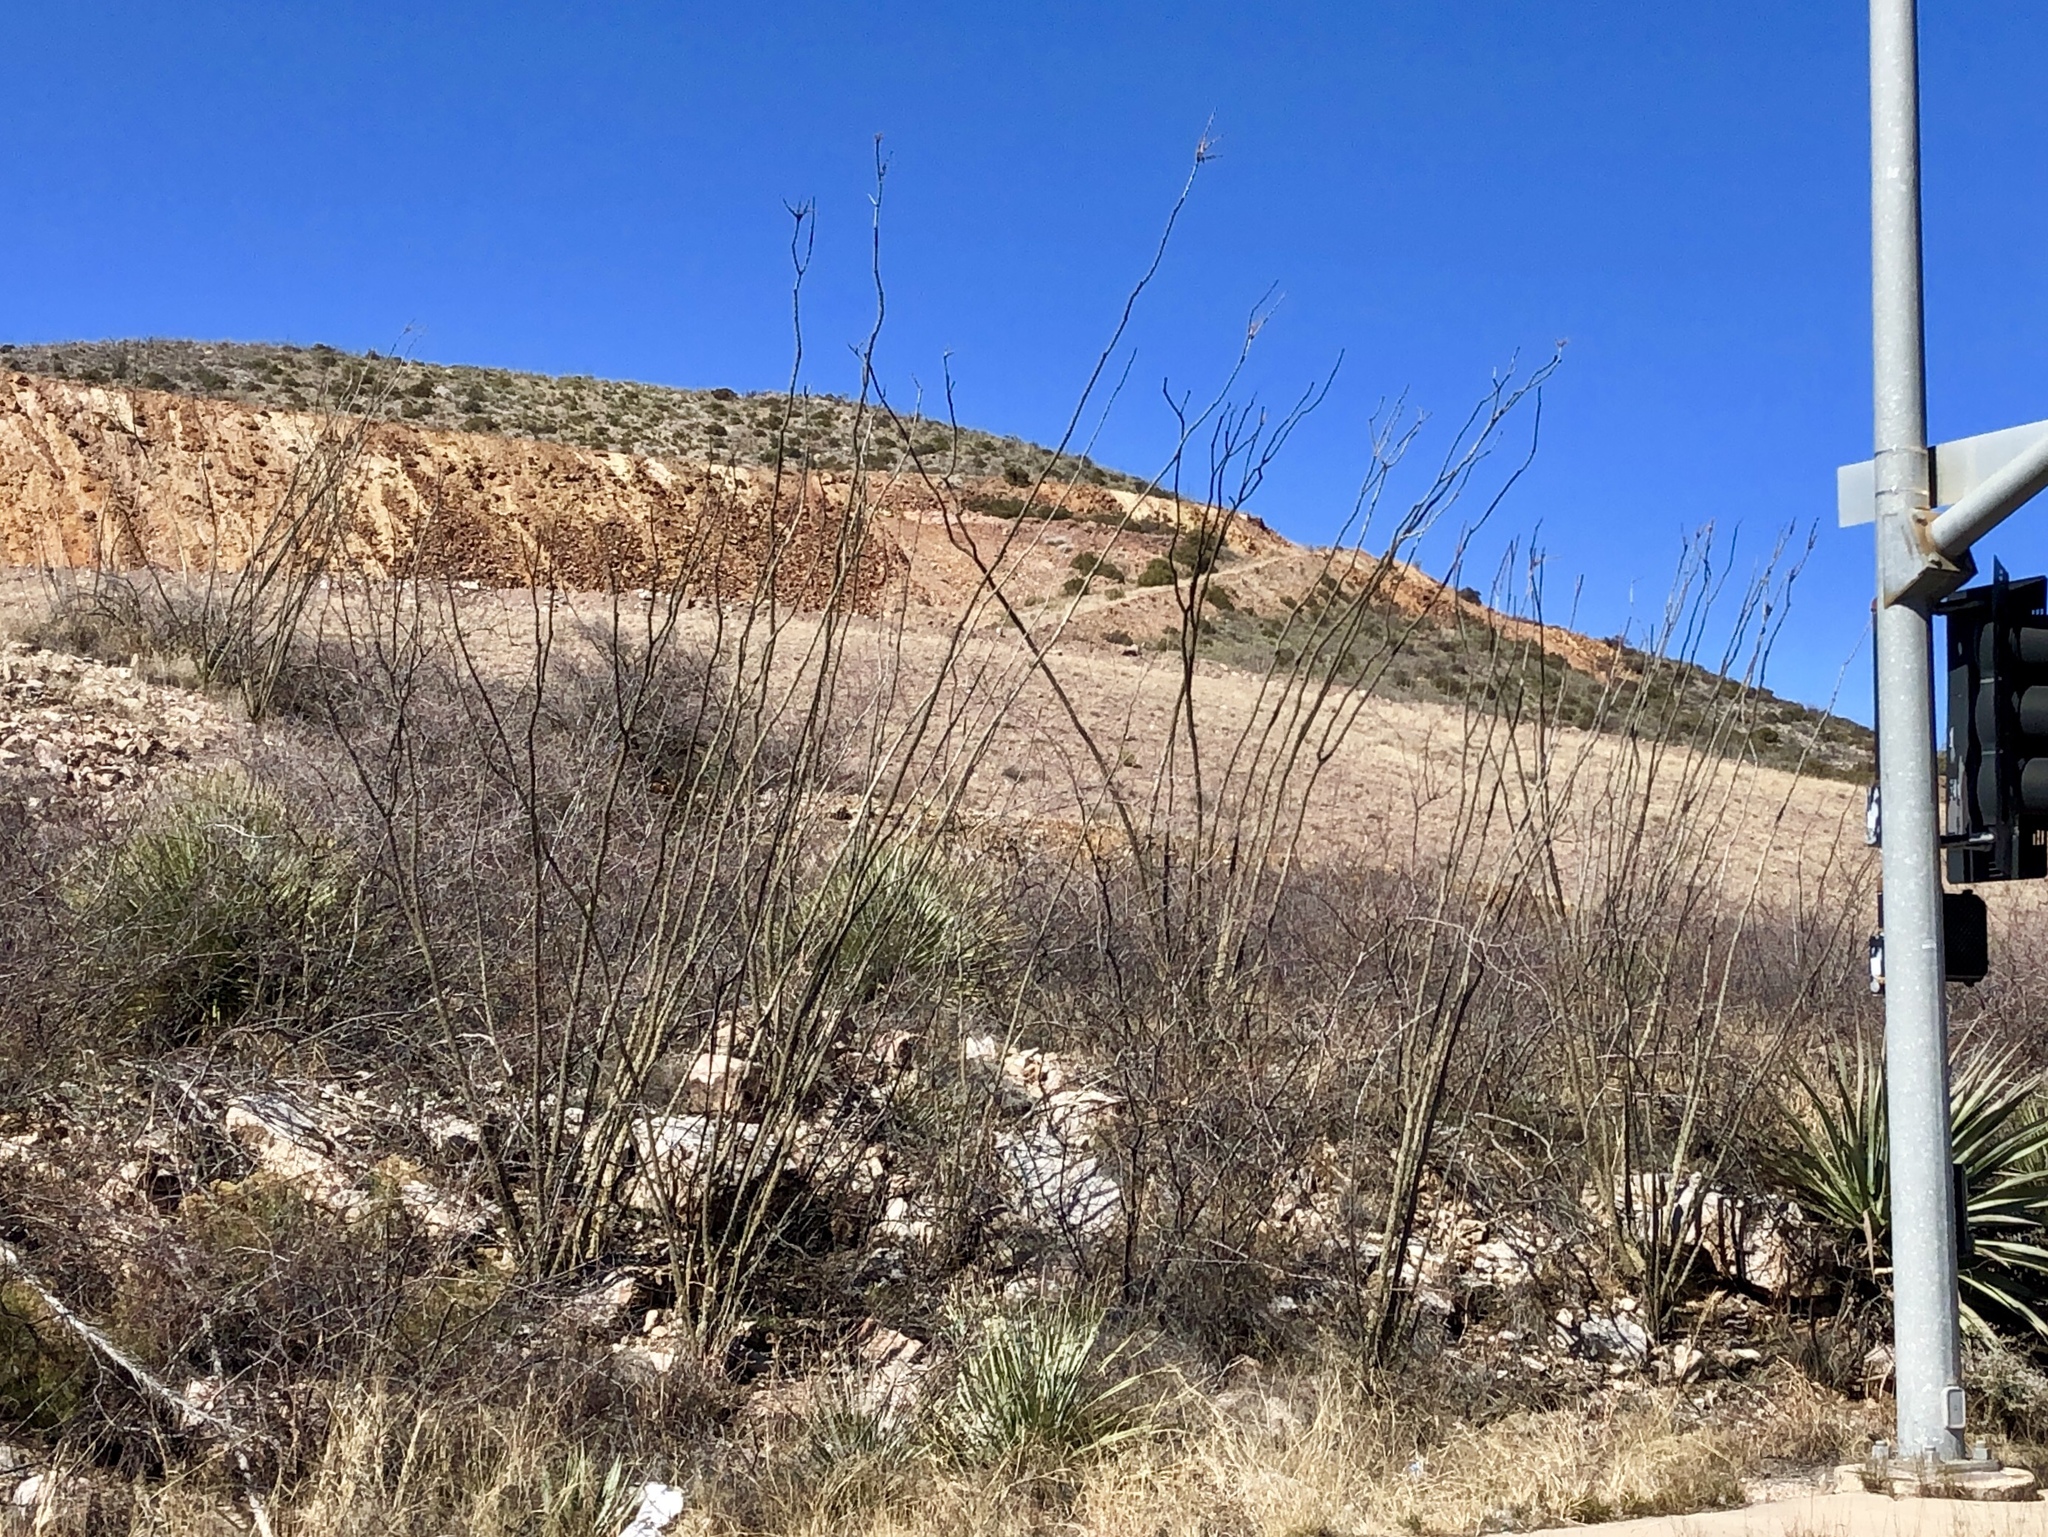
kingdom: Plantae
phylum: Tracheophyta
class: Magnoliopsida
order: Ericales
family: Fouquieriaceae
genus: Fouquieria
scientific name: Fouquieria splendens
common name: Vine-cactus
